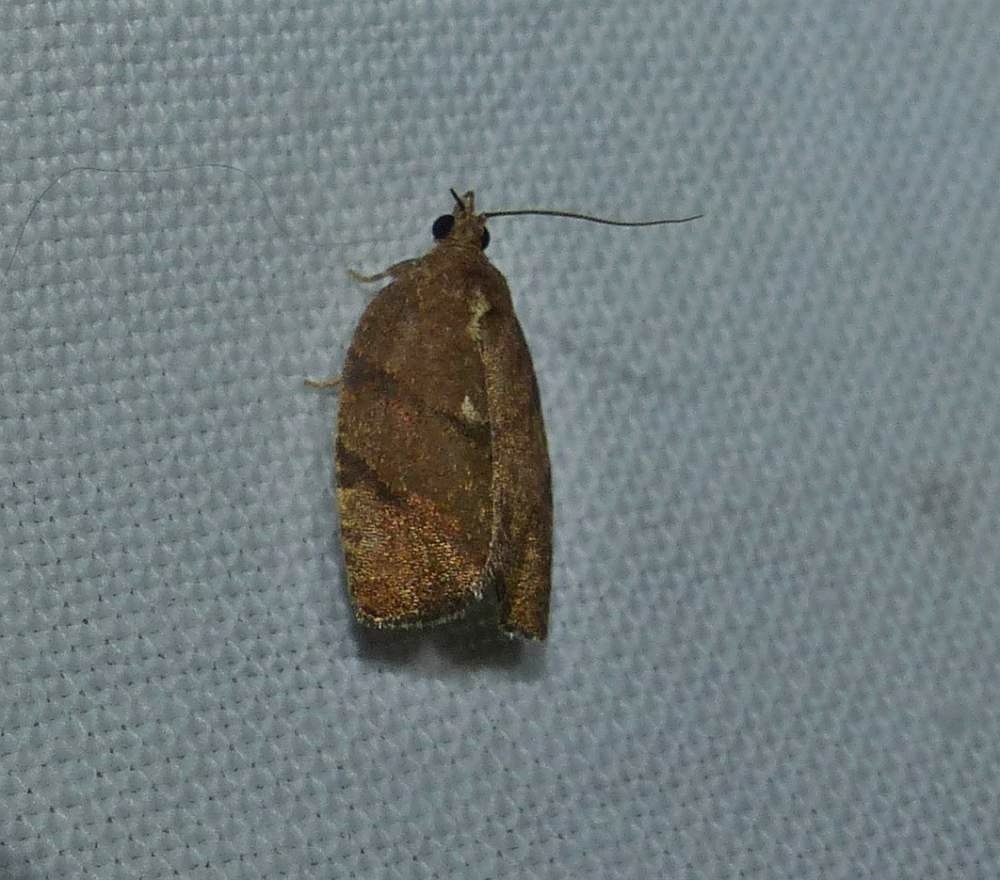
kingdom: Animalia
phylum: Arthropoda
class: Insecta
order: Lepidoptera
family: Tortricidae
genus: Argyrotaenia
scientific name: Argyrotaenia juglandana
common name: Hickory leafroller moth
